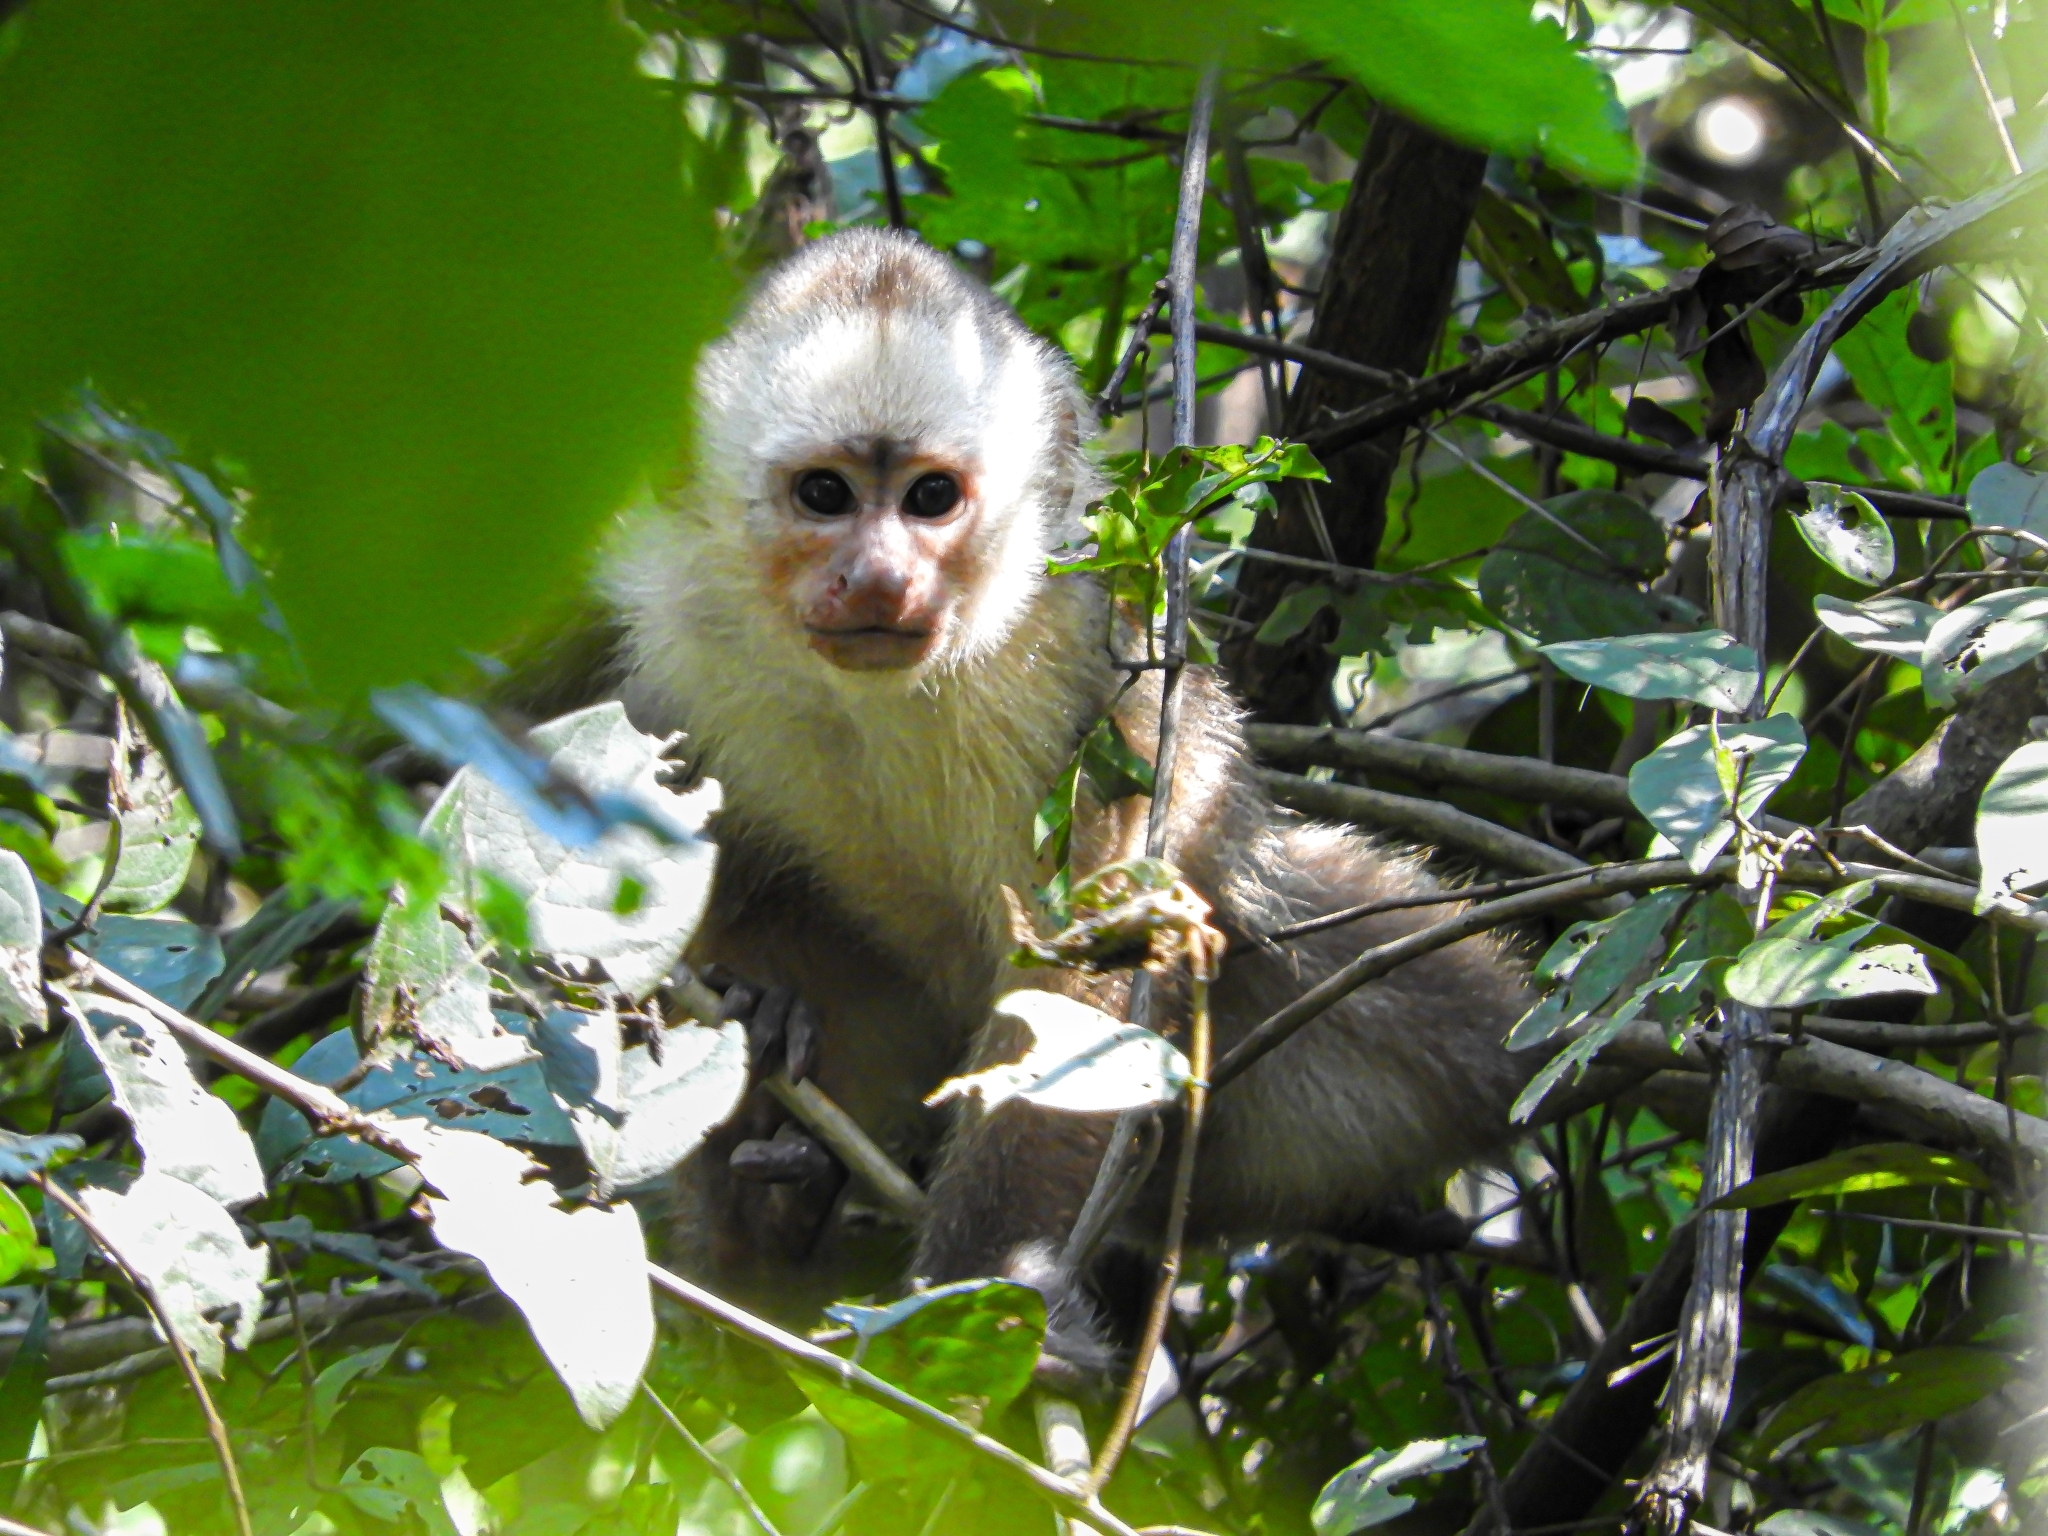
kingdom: Animalia
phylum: Chordata
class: Mammalia
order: Primates
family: Cebidae
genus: Cebus
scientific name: Cebus versicolor
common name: Varied capuchin
